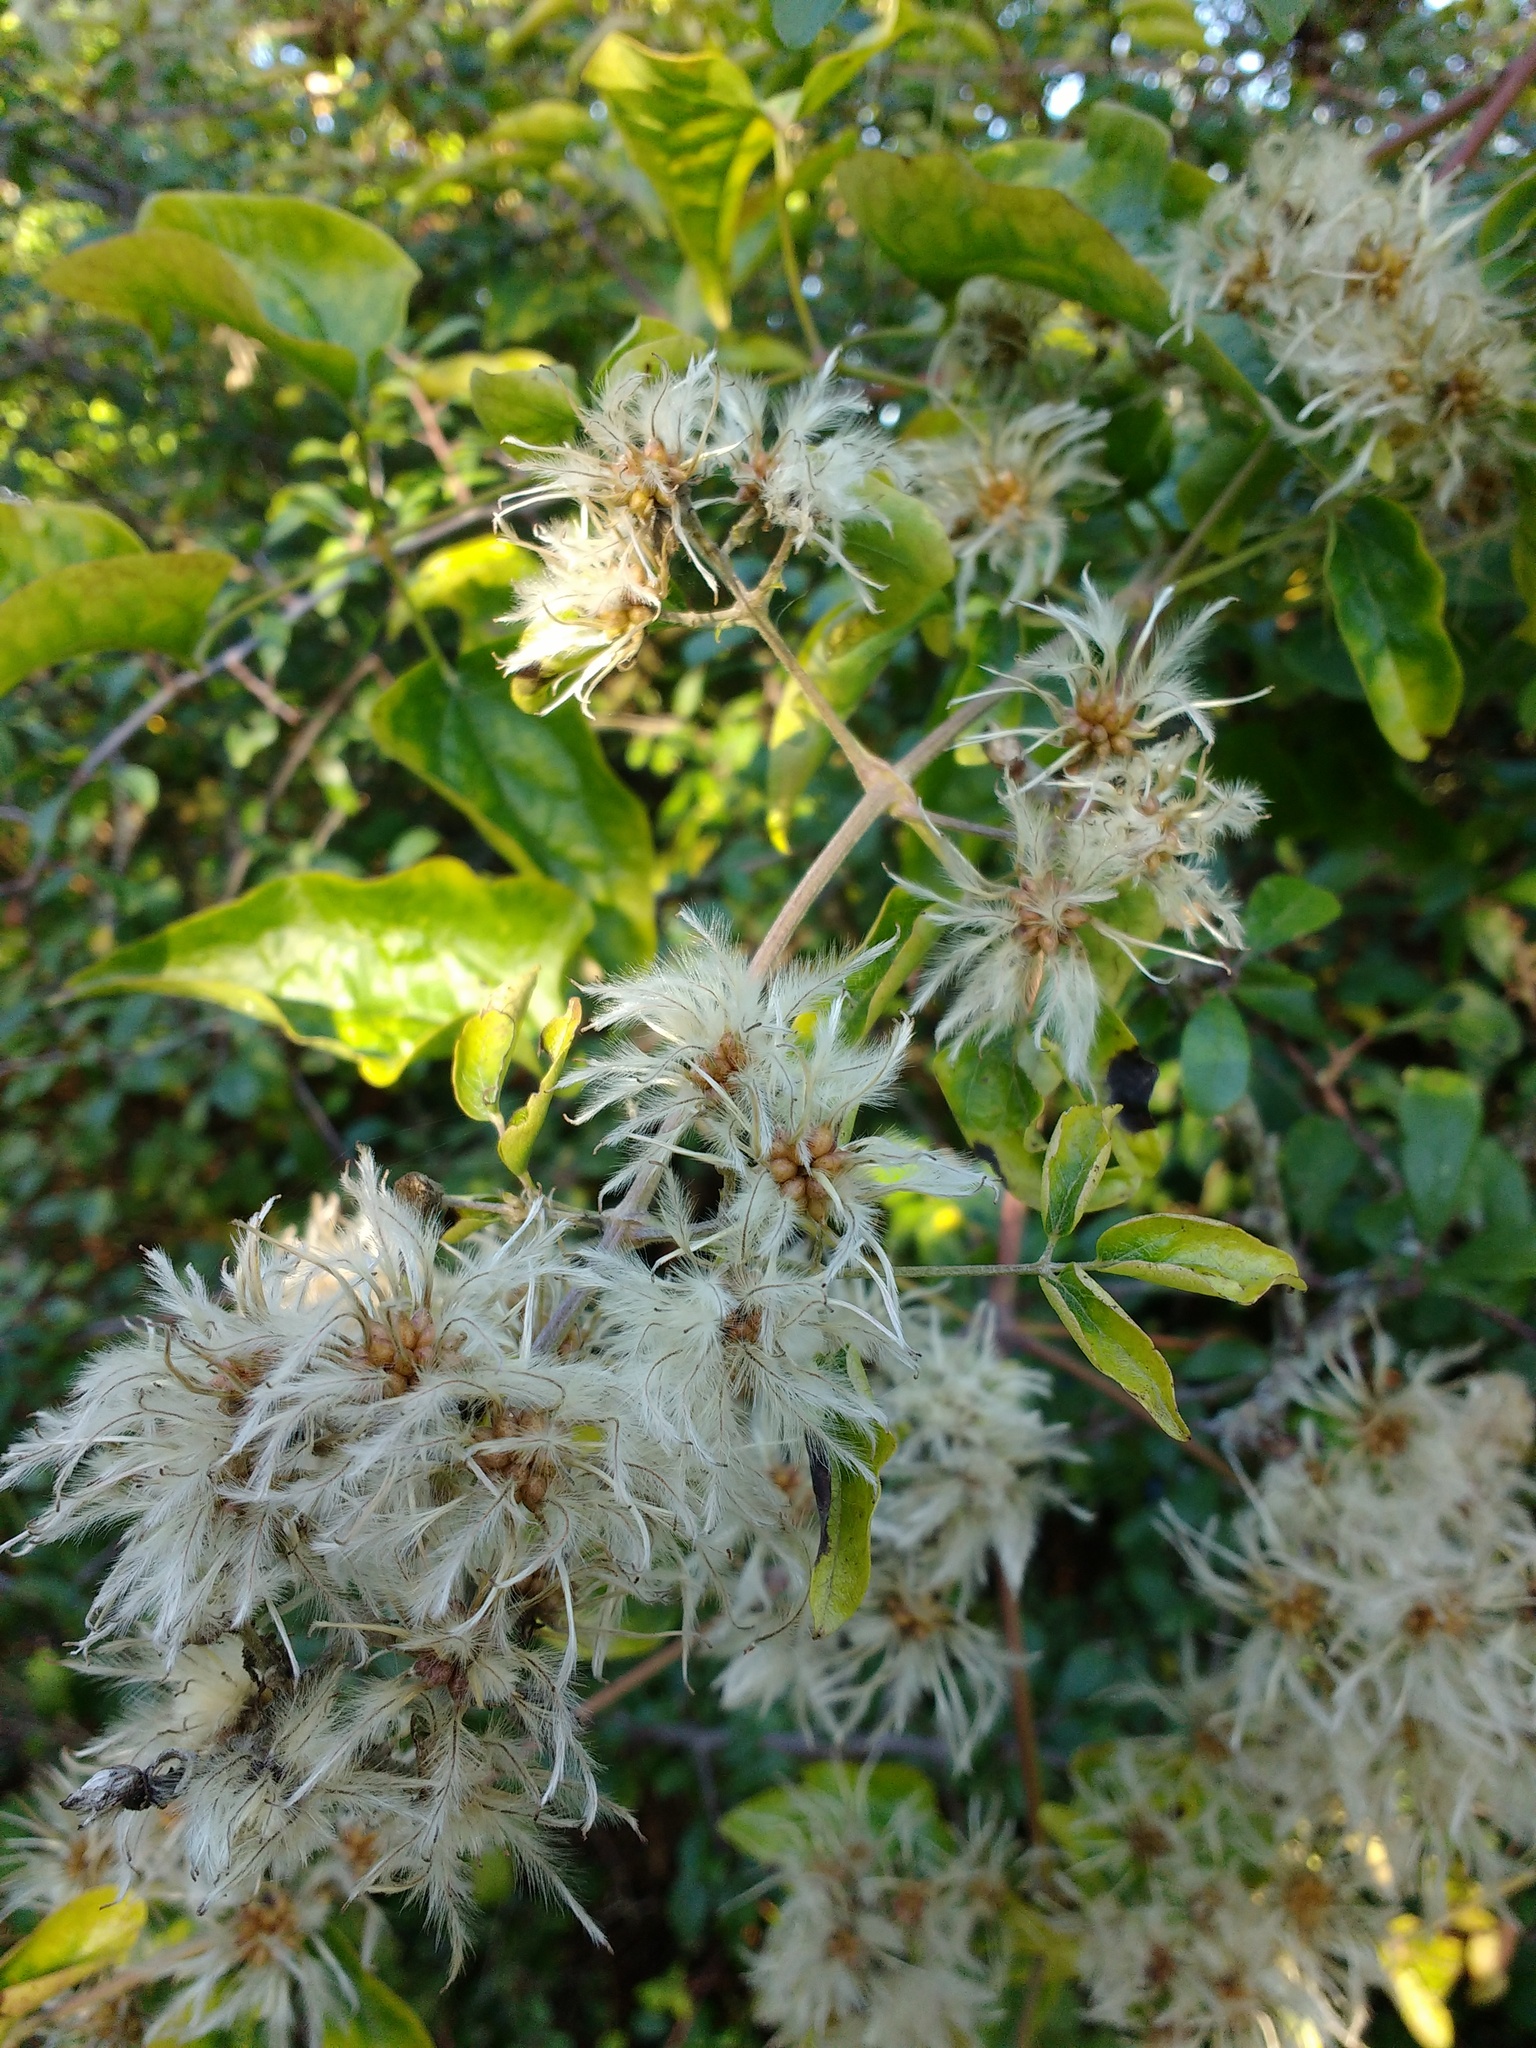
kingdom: Plantae
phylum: Tracheophyta
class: Magnoliopsida
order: Ranunculales
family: Ranunculaceae
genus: Clematis
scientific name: Clematis vitalba
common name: Evergreen clematis
